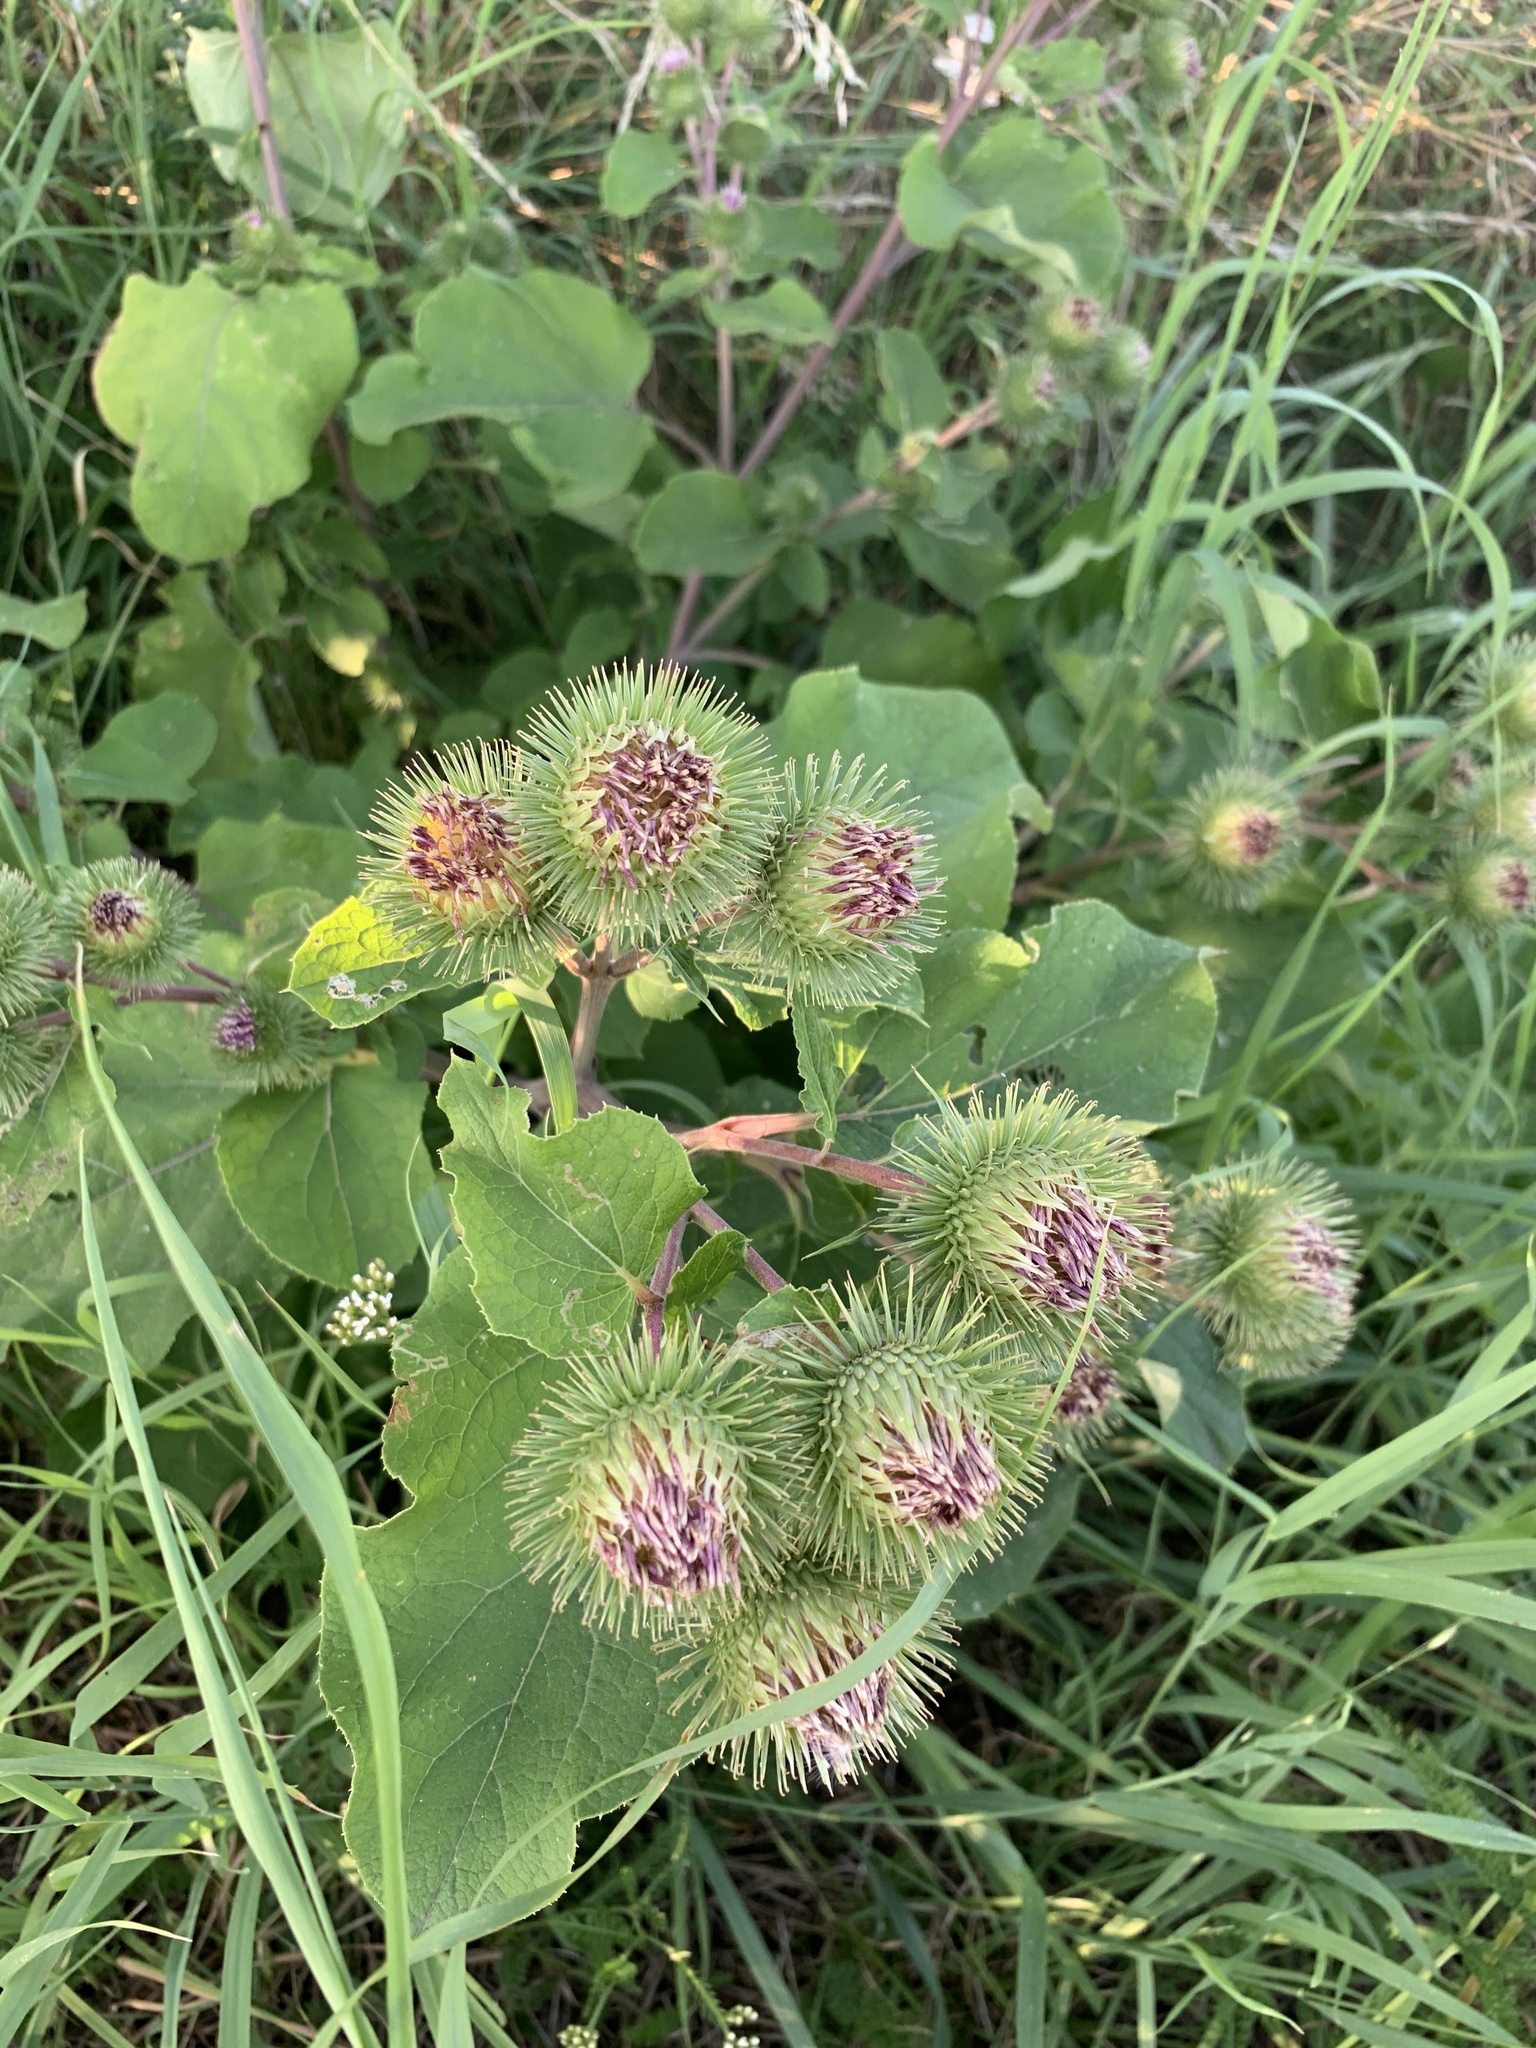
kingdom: Plantae
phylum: Tracheophyta
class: Magnoliopsida
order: Asterales
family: Asteraceae
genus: Arctium
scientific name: Arctium lappa
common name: Greater burdock
